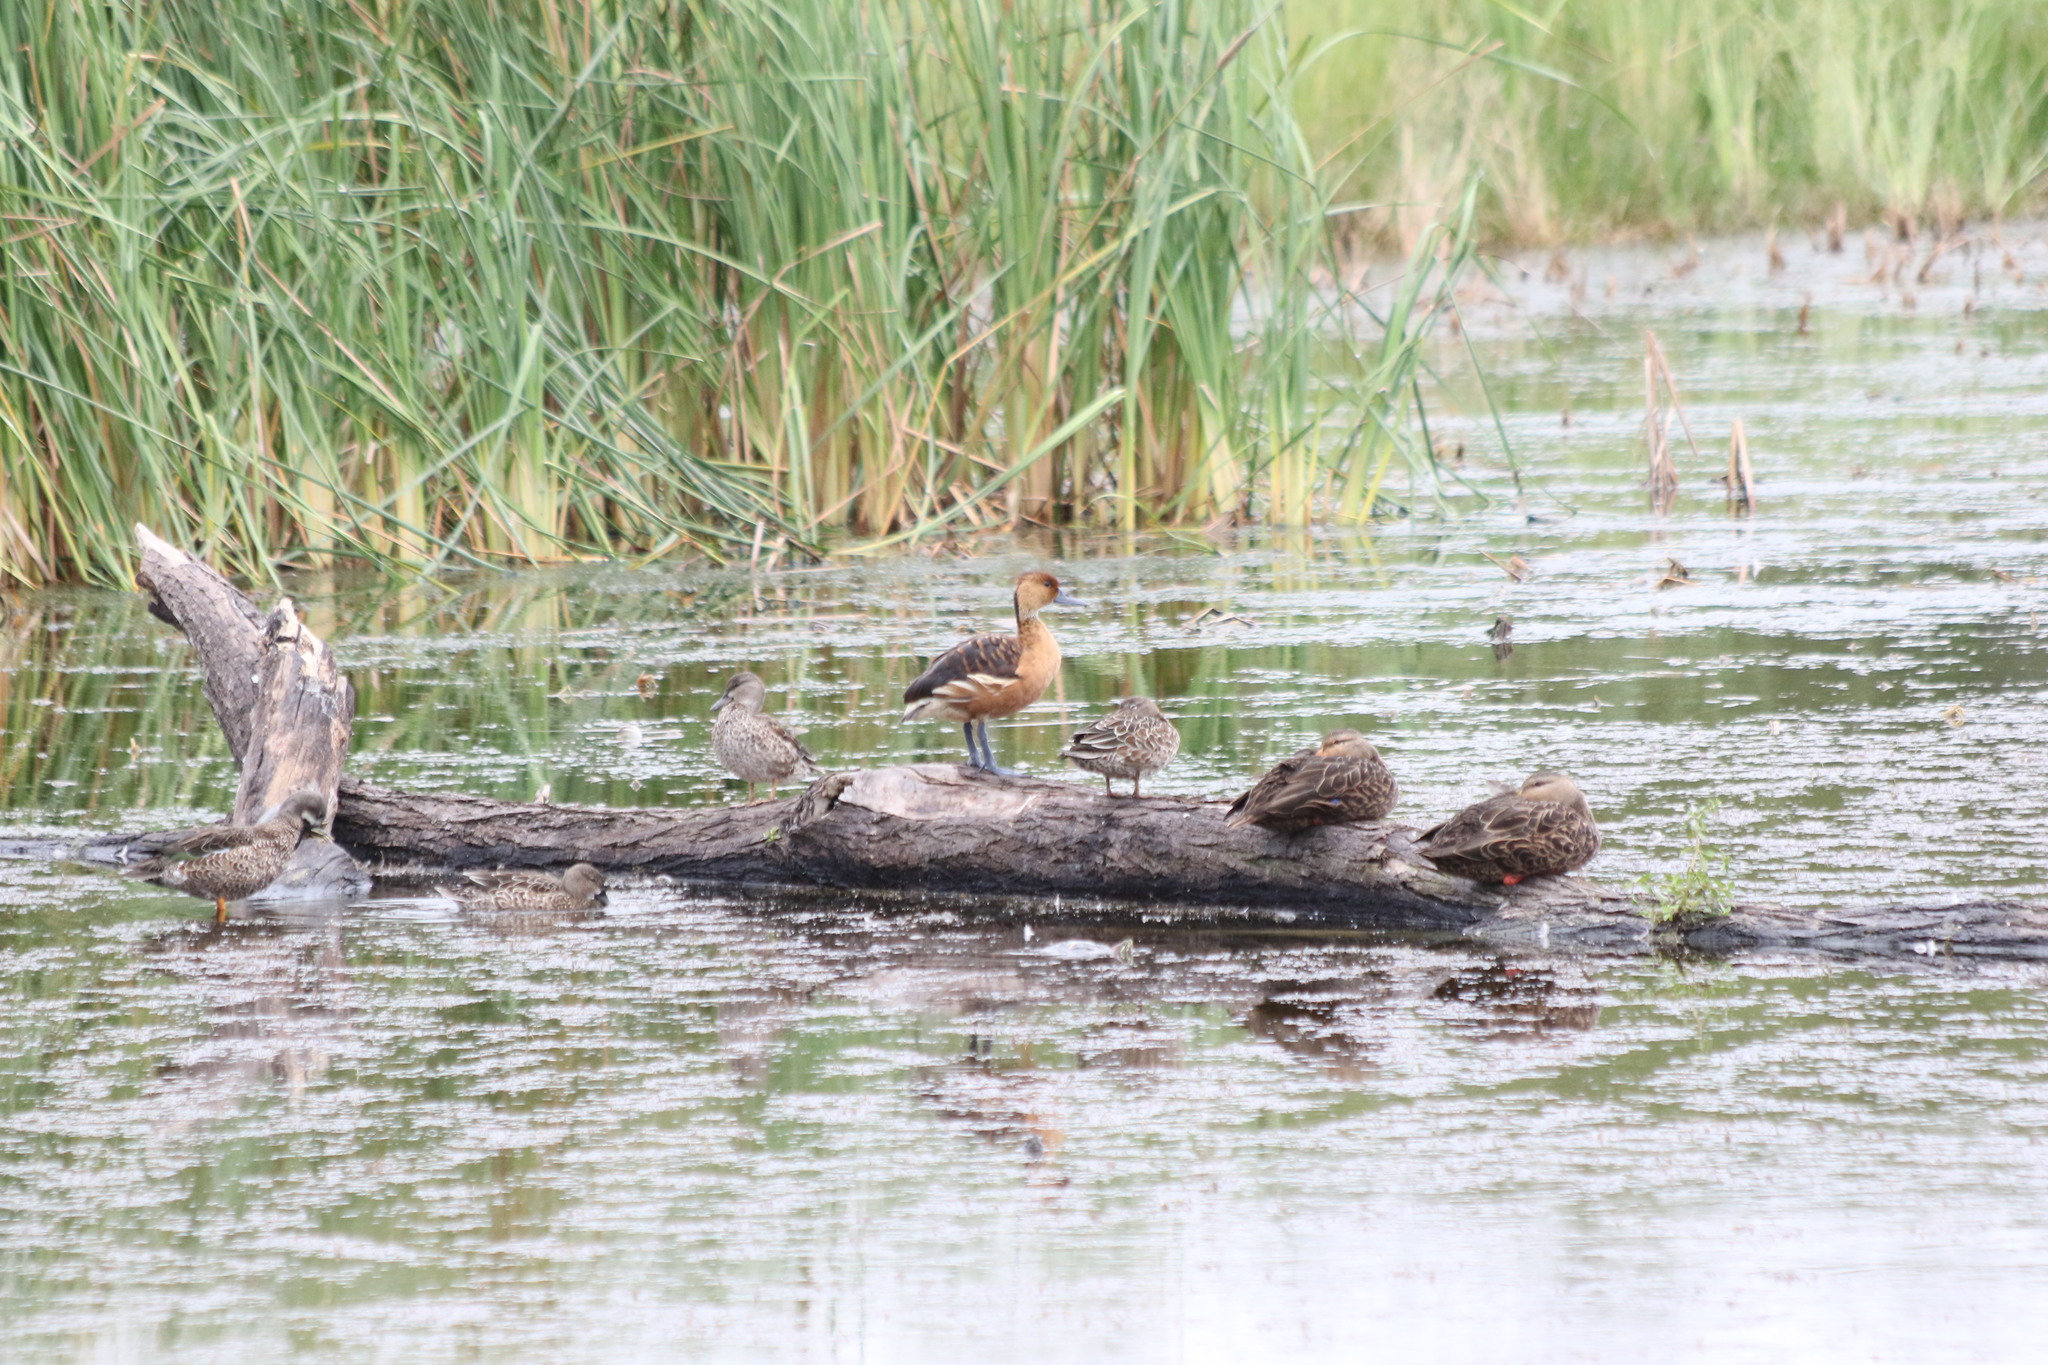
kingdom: Animalia
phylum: Chordata
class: Aves
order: Anseriformes
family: Anatidae
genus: Dendrocygna
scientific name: Dendrocygna bicolor
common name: Fulvous whistling duck
